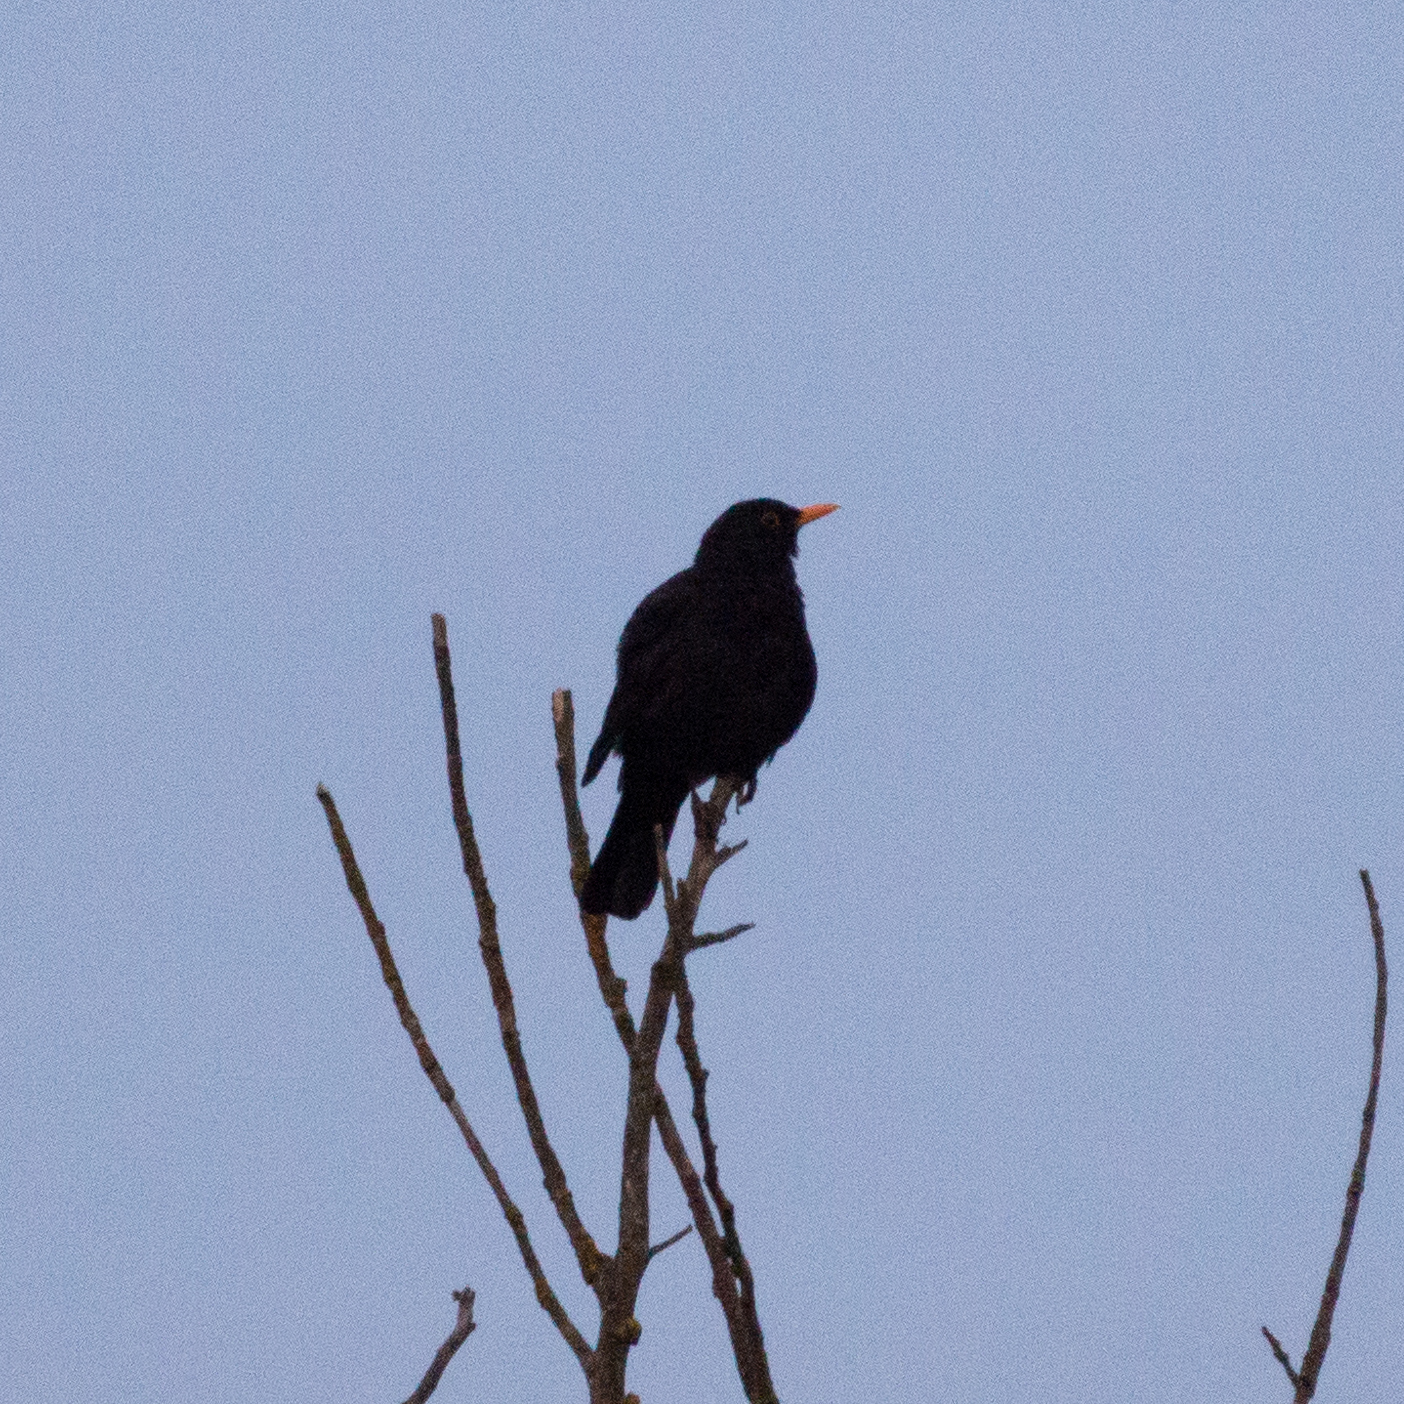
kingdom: Animalia
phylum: Chordata
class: Aves
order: Passeriformes
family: Turdidae
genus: Turdus
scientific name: Turdus merula
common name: Common blackbird
